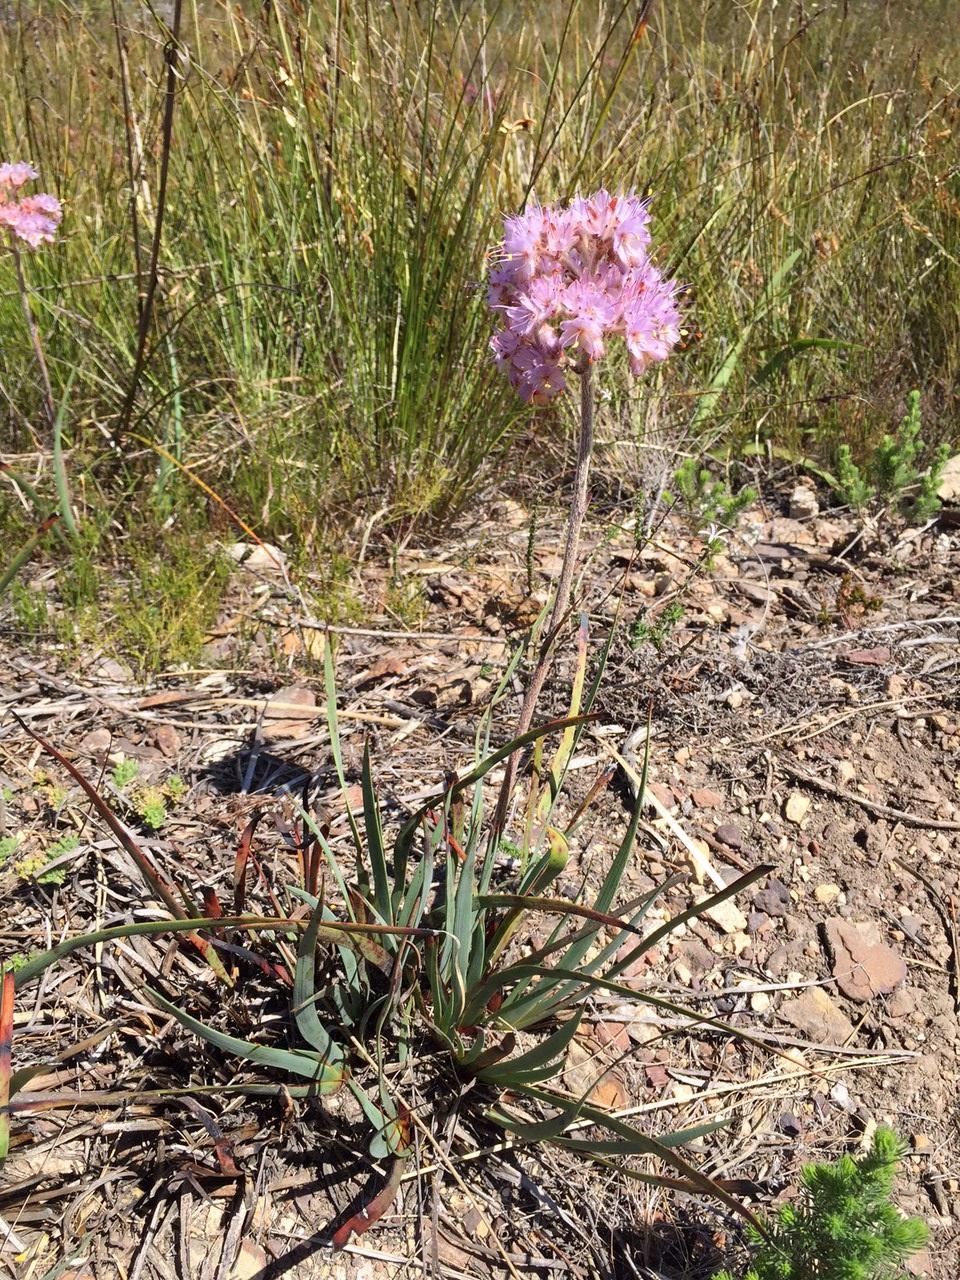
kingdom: Plantae
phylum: Tracheophyta
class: Liliopsida
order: Commelinales
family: Haemodoraceae
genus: Dilatris
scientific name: Dilatris ixioides
